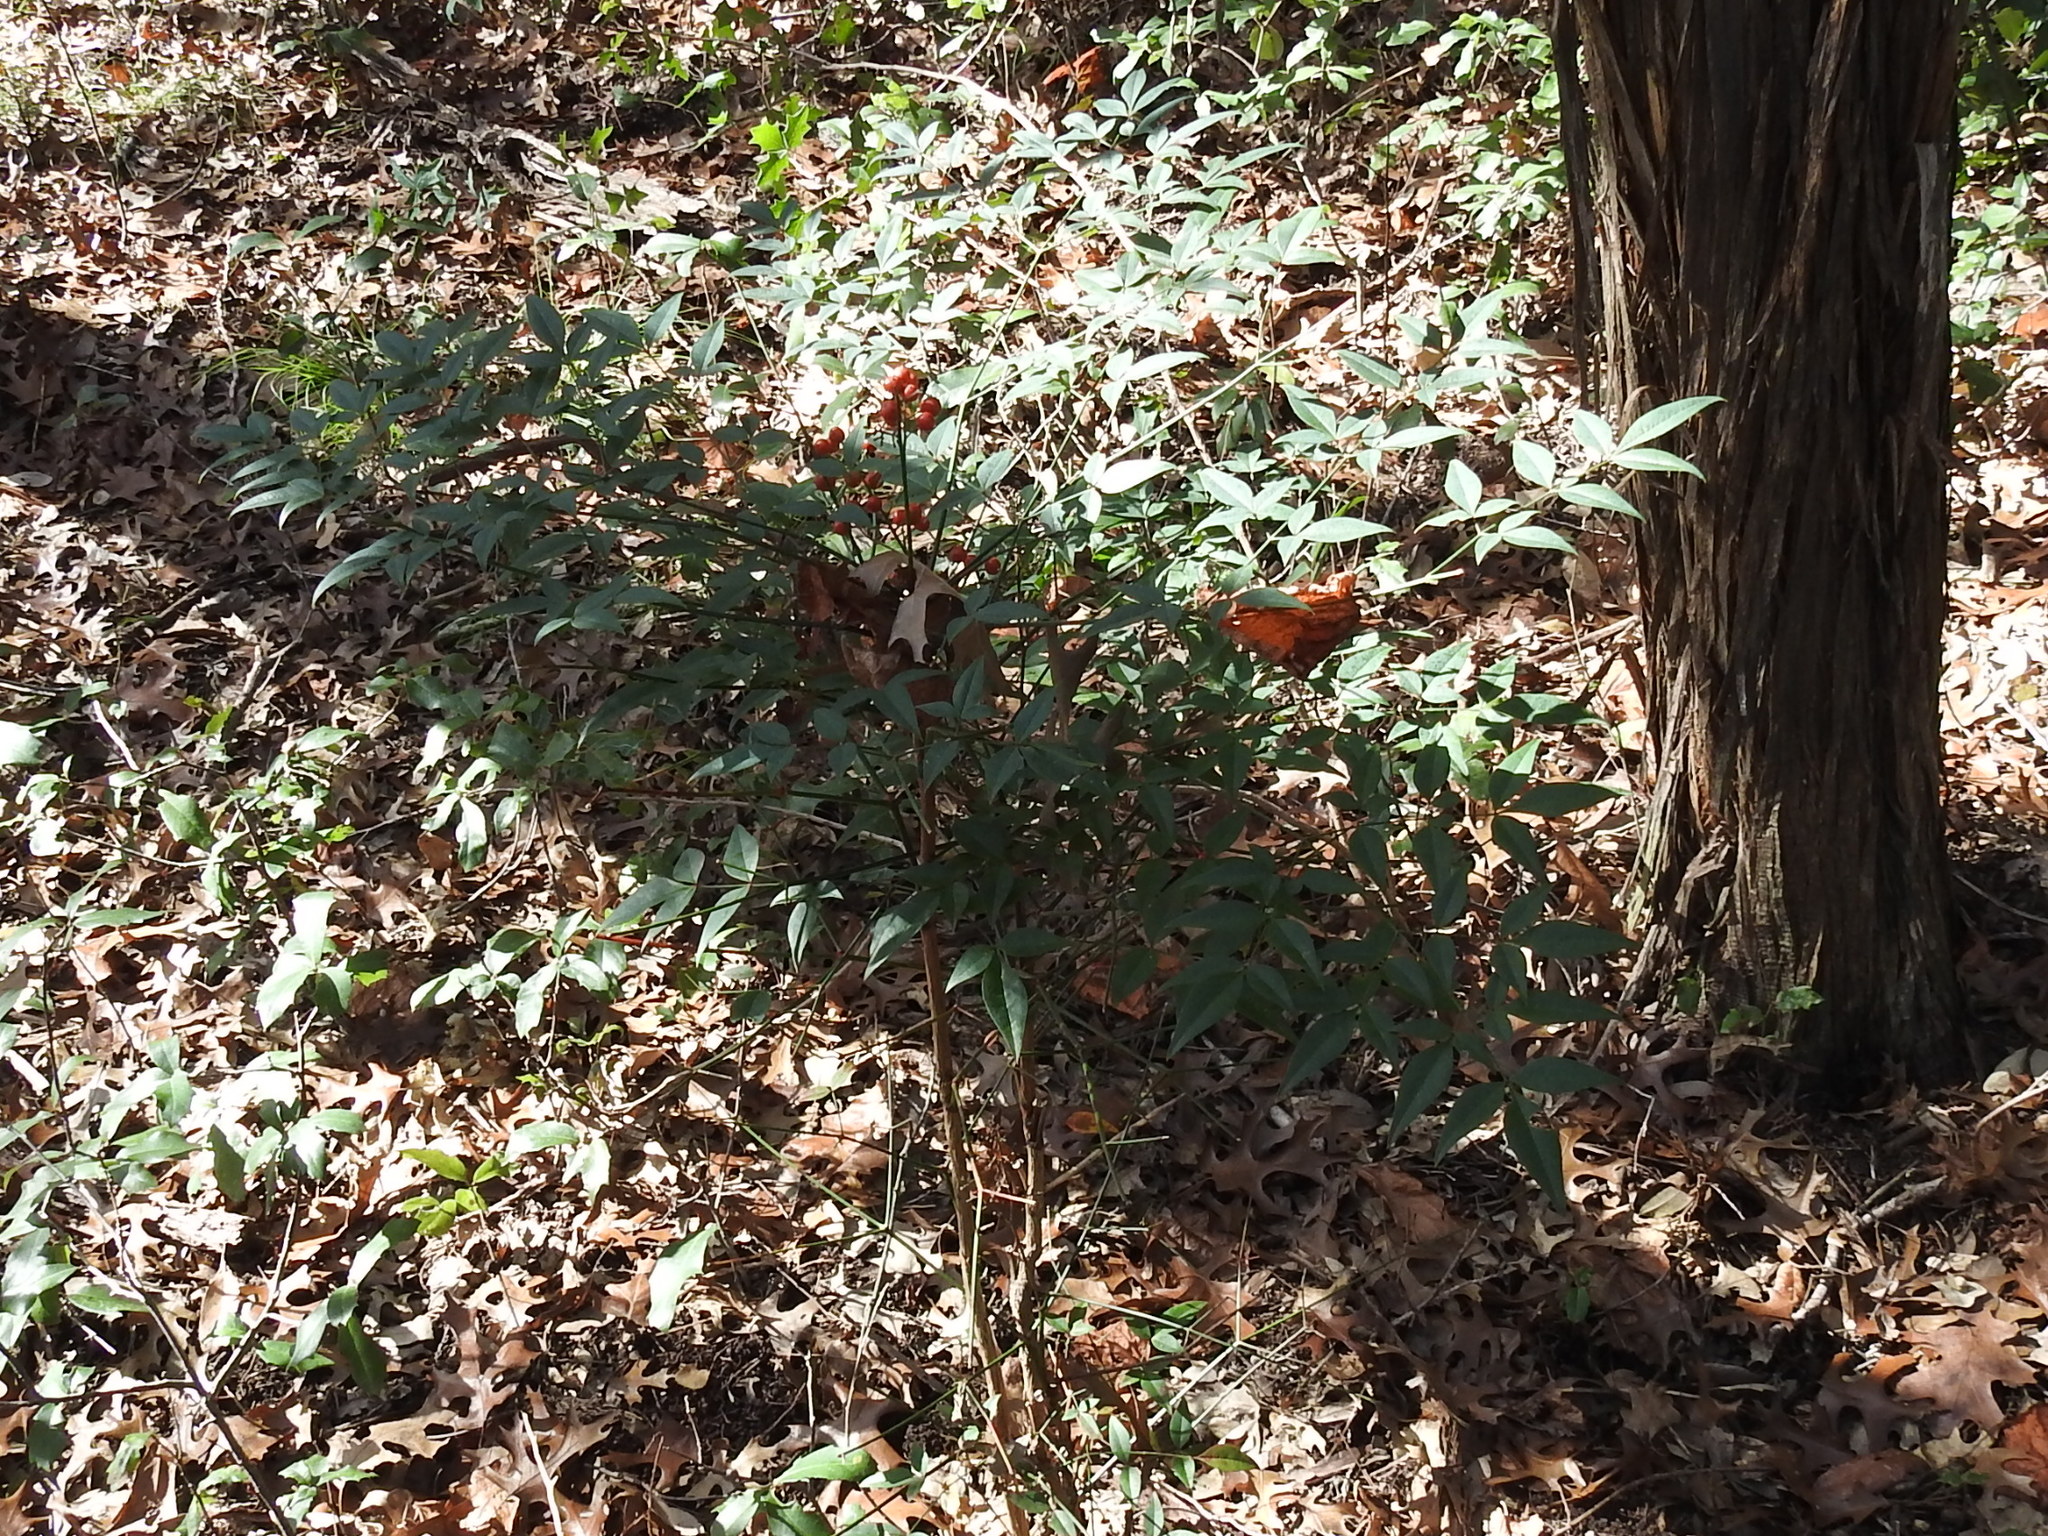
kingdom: Plantae
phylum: Tracheophyta
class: Magnoliopsida
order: Ranunculales
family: Berberidaceae
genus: Nandina
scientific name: Nandina domestica
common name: Sacred bamboo
